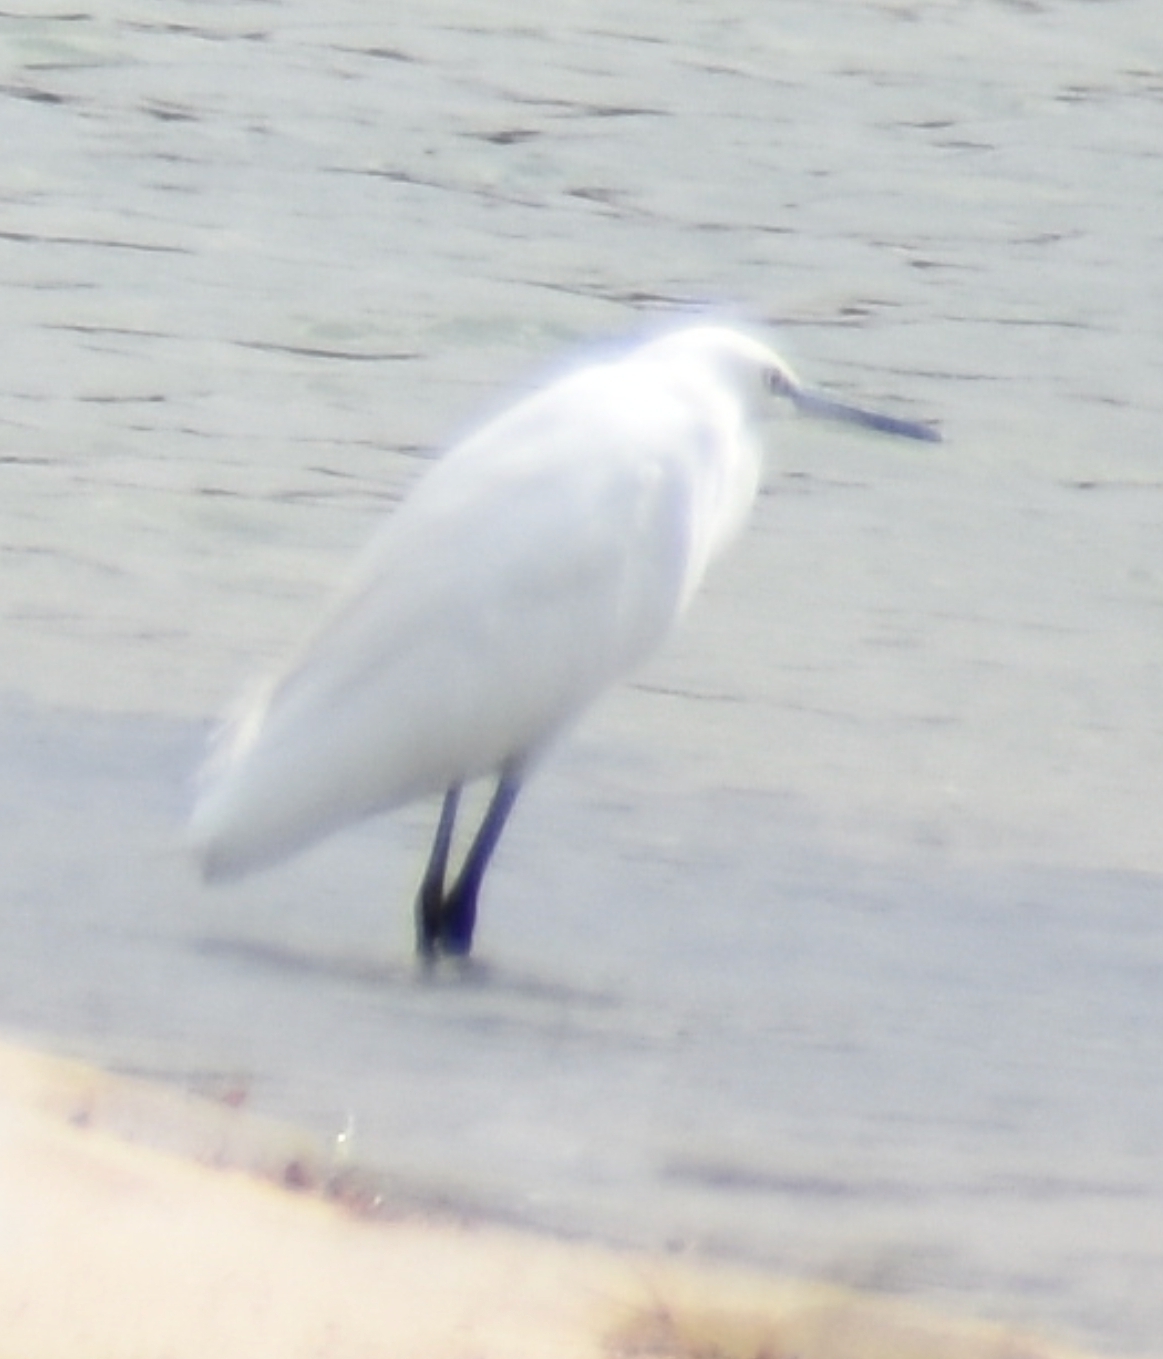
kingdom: Animalia
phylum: Chordata
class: Aves
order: Pelecaniformes
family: Ardeidae
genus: Egretta
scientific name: Egretta garzetta
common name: Little egret
